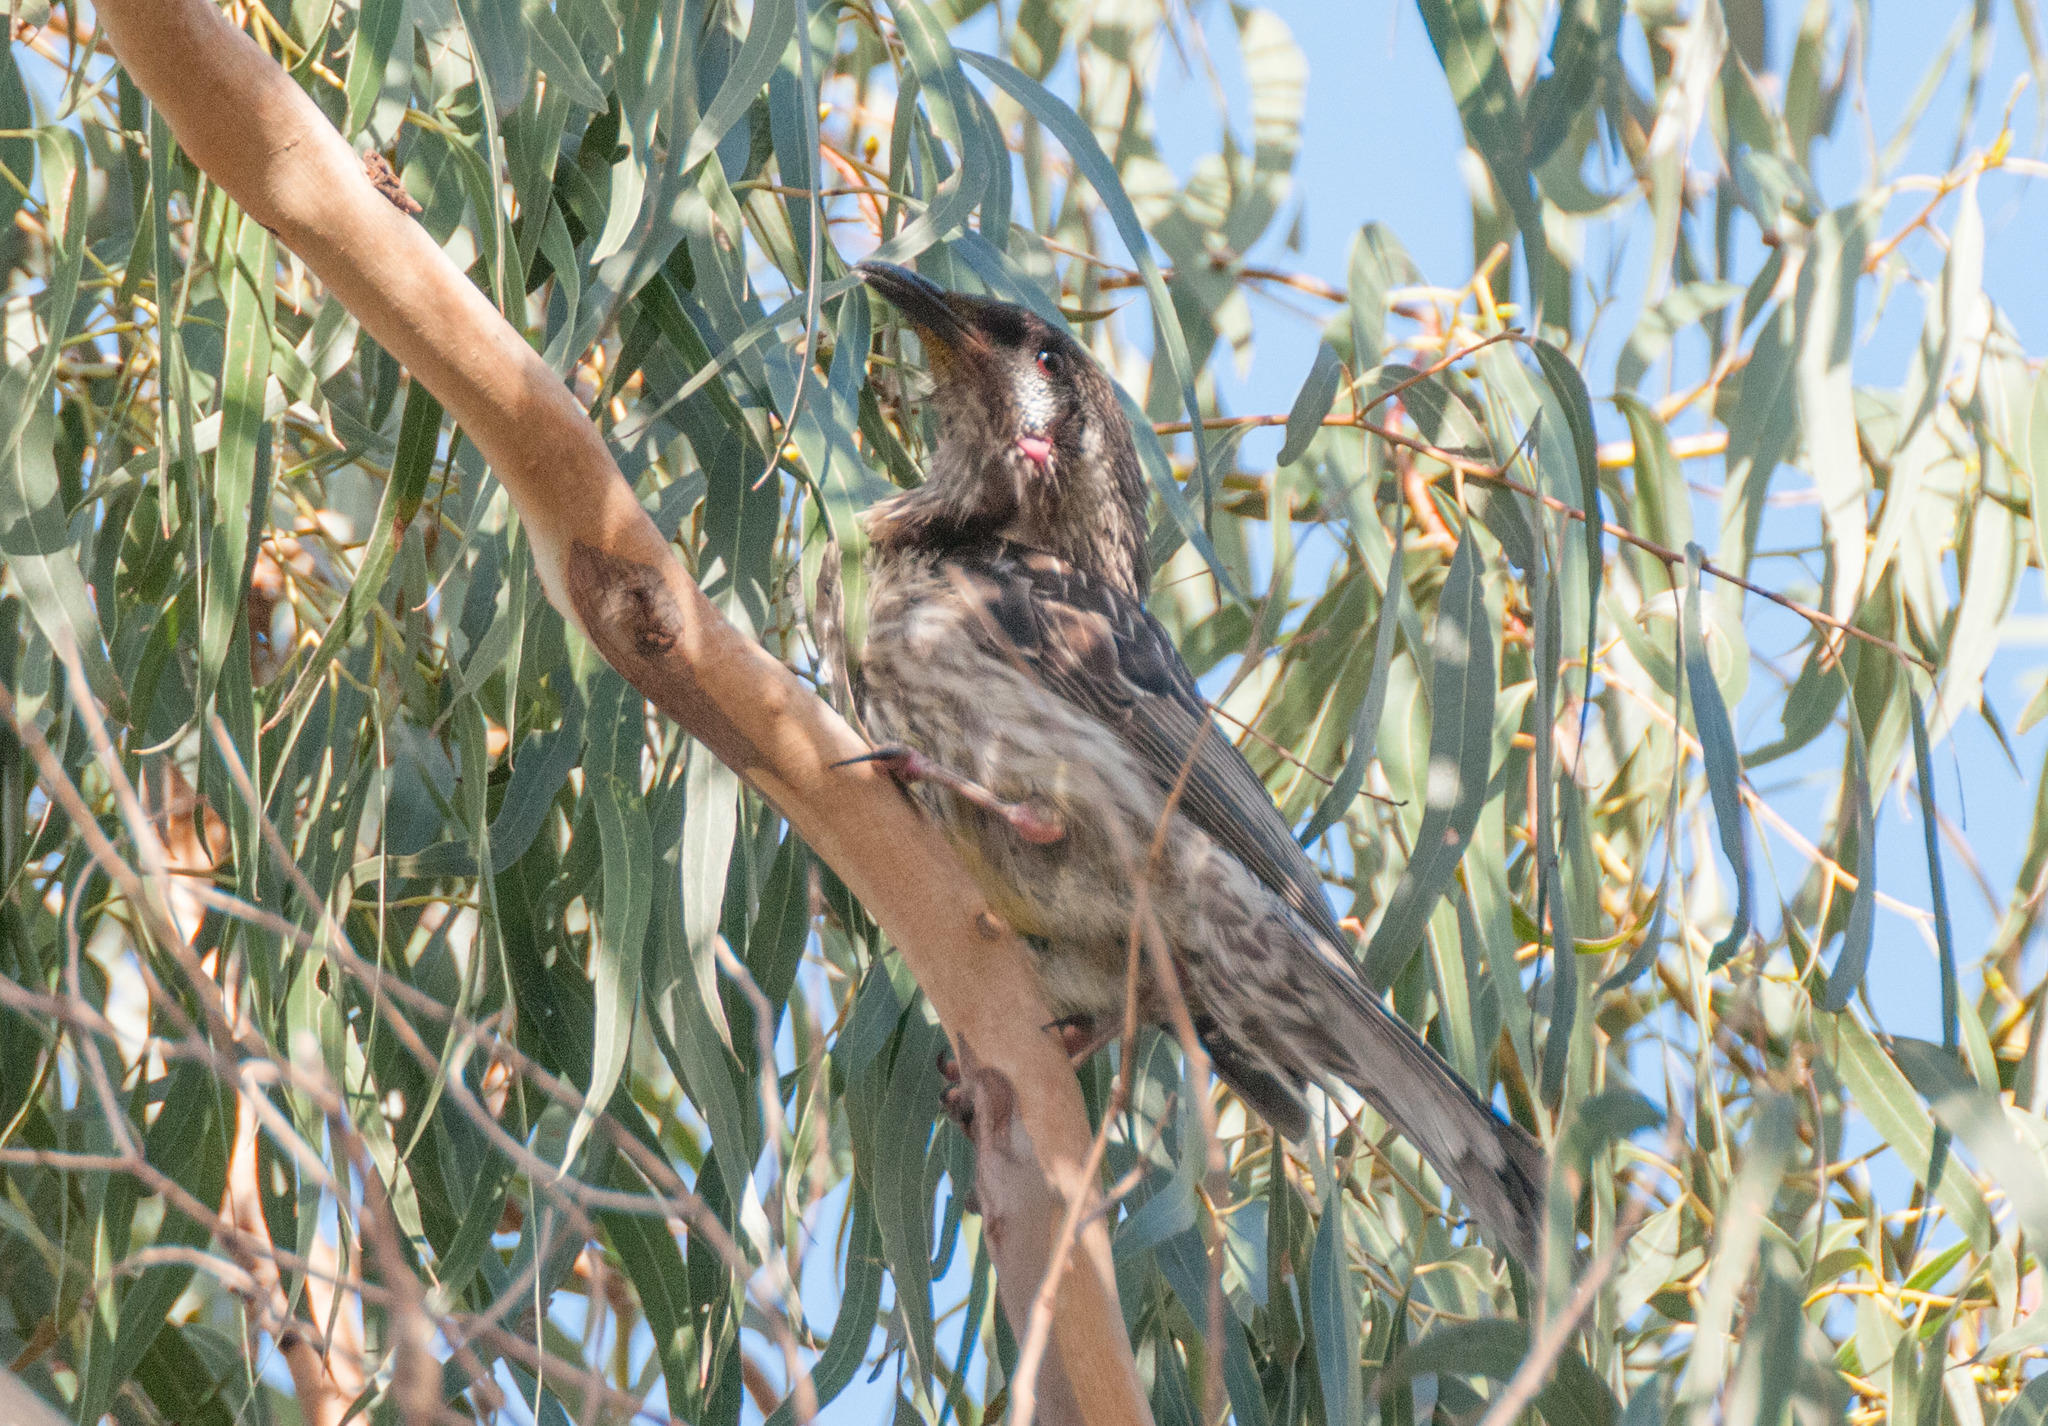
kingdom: Animalia
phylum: Chordata
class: Aves
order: Passeriformes
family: Meliphagidae
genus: Anthochaera
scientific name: Anthochaera carunculata
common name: Red wattlebird
